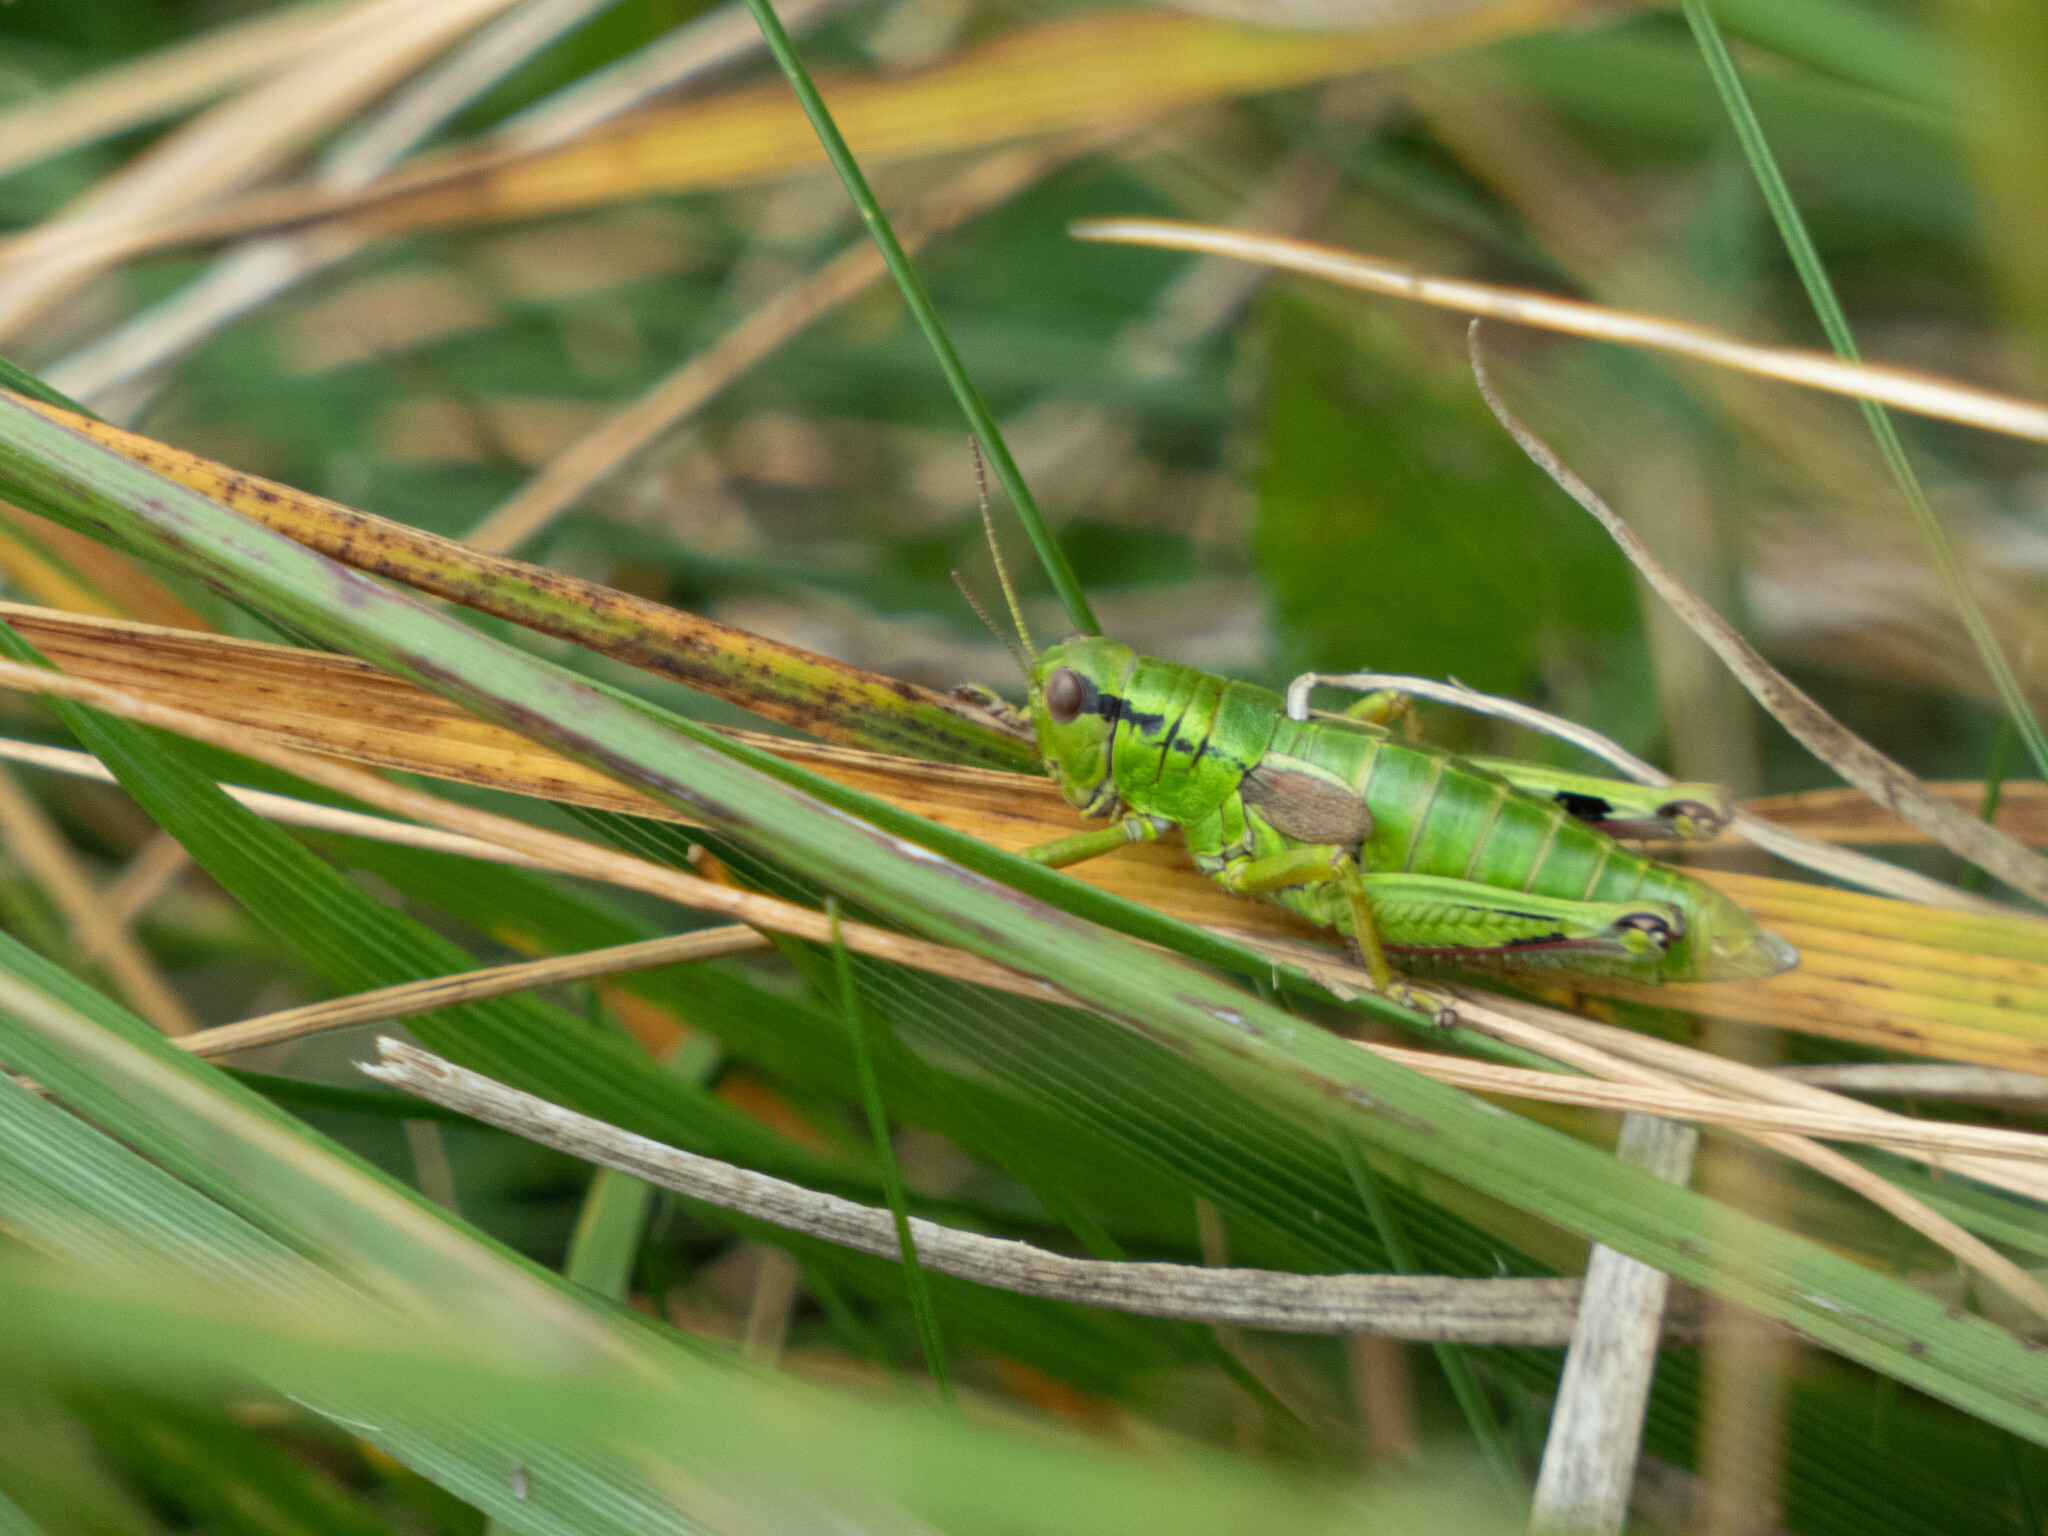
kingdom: Animalia
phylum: Arthropoda
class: Insecta
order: Orthoptera
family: Acrididae
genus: Miramella
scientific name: Miramella alpina
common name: Green mountain grasshopper
